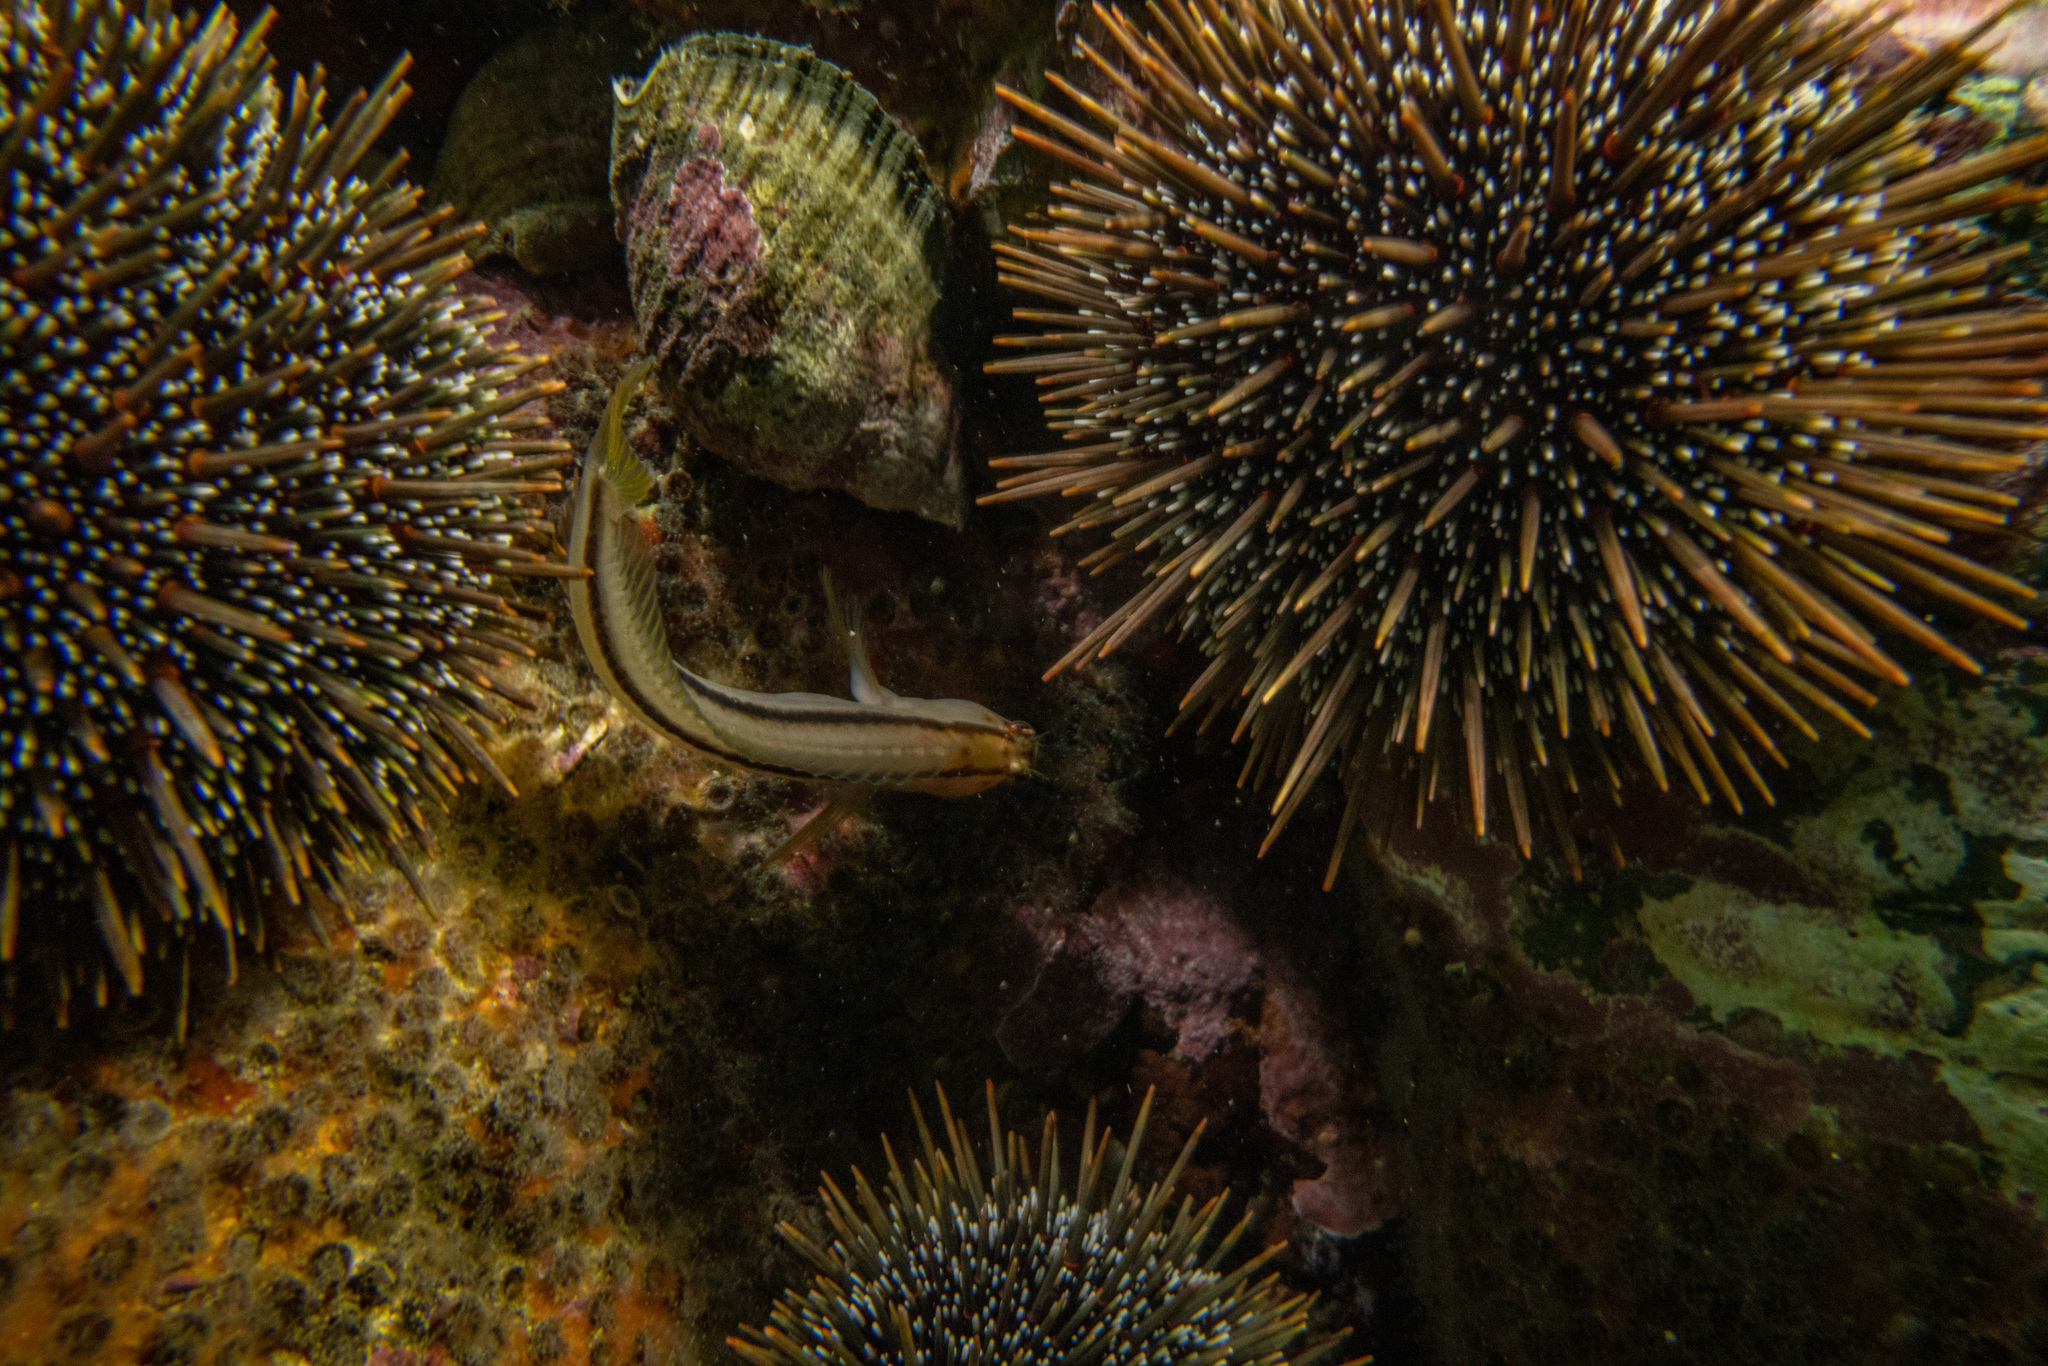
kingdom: Animalia
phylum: Chordata
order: Perciformes
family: Blenniidae
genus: Parablennius
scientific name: Parablennius laticlavius
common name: Crested blenny
